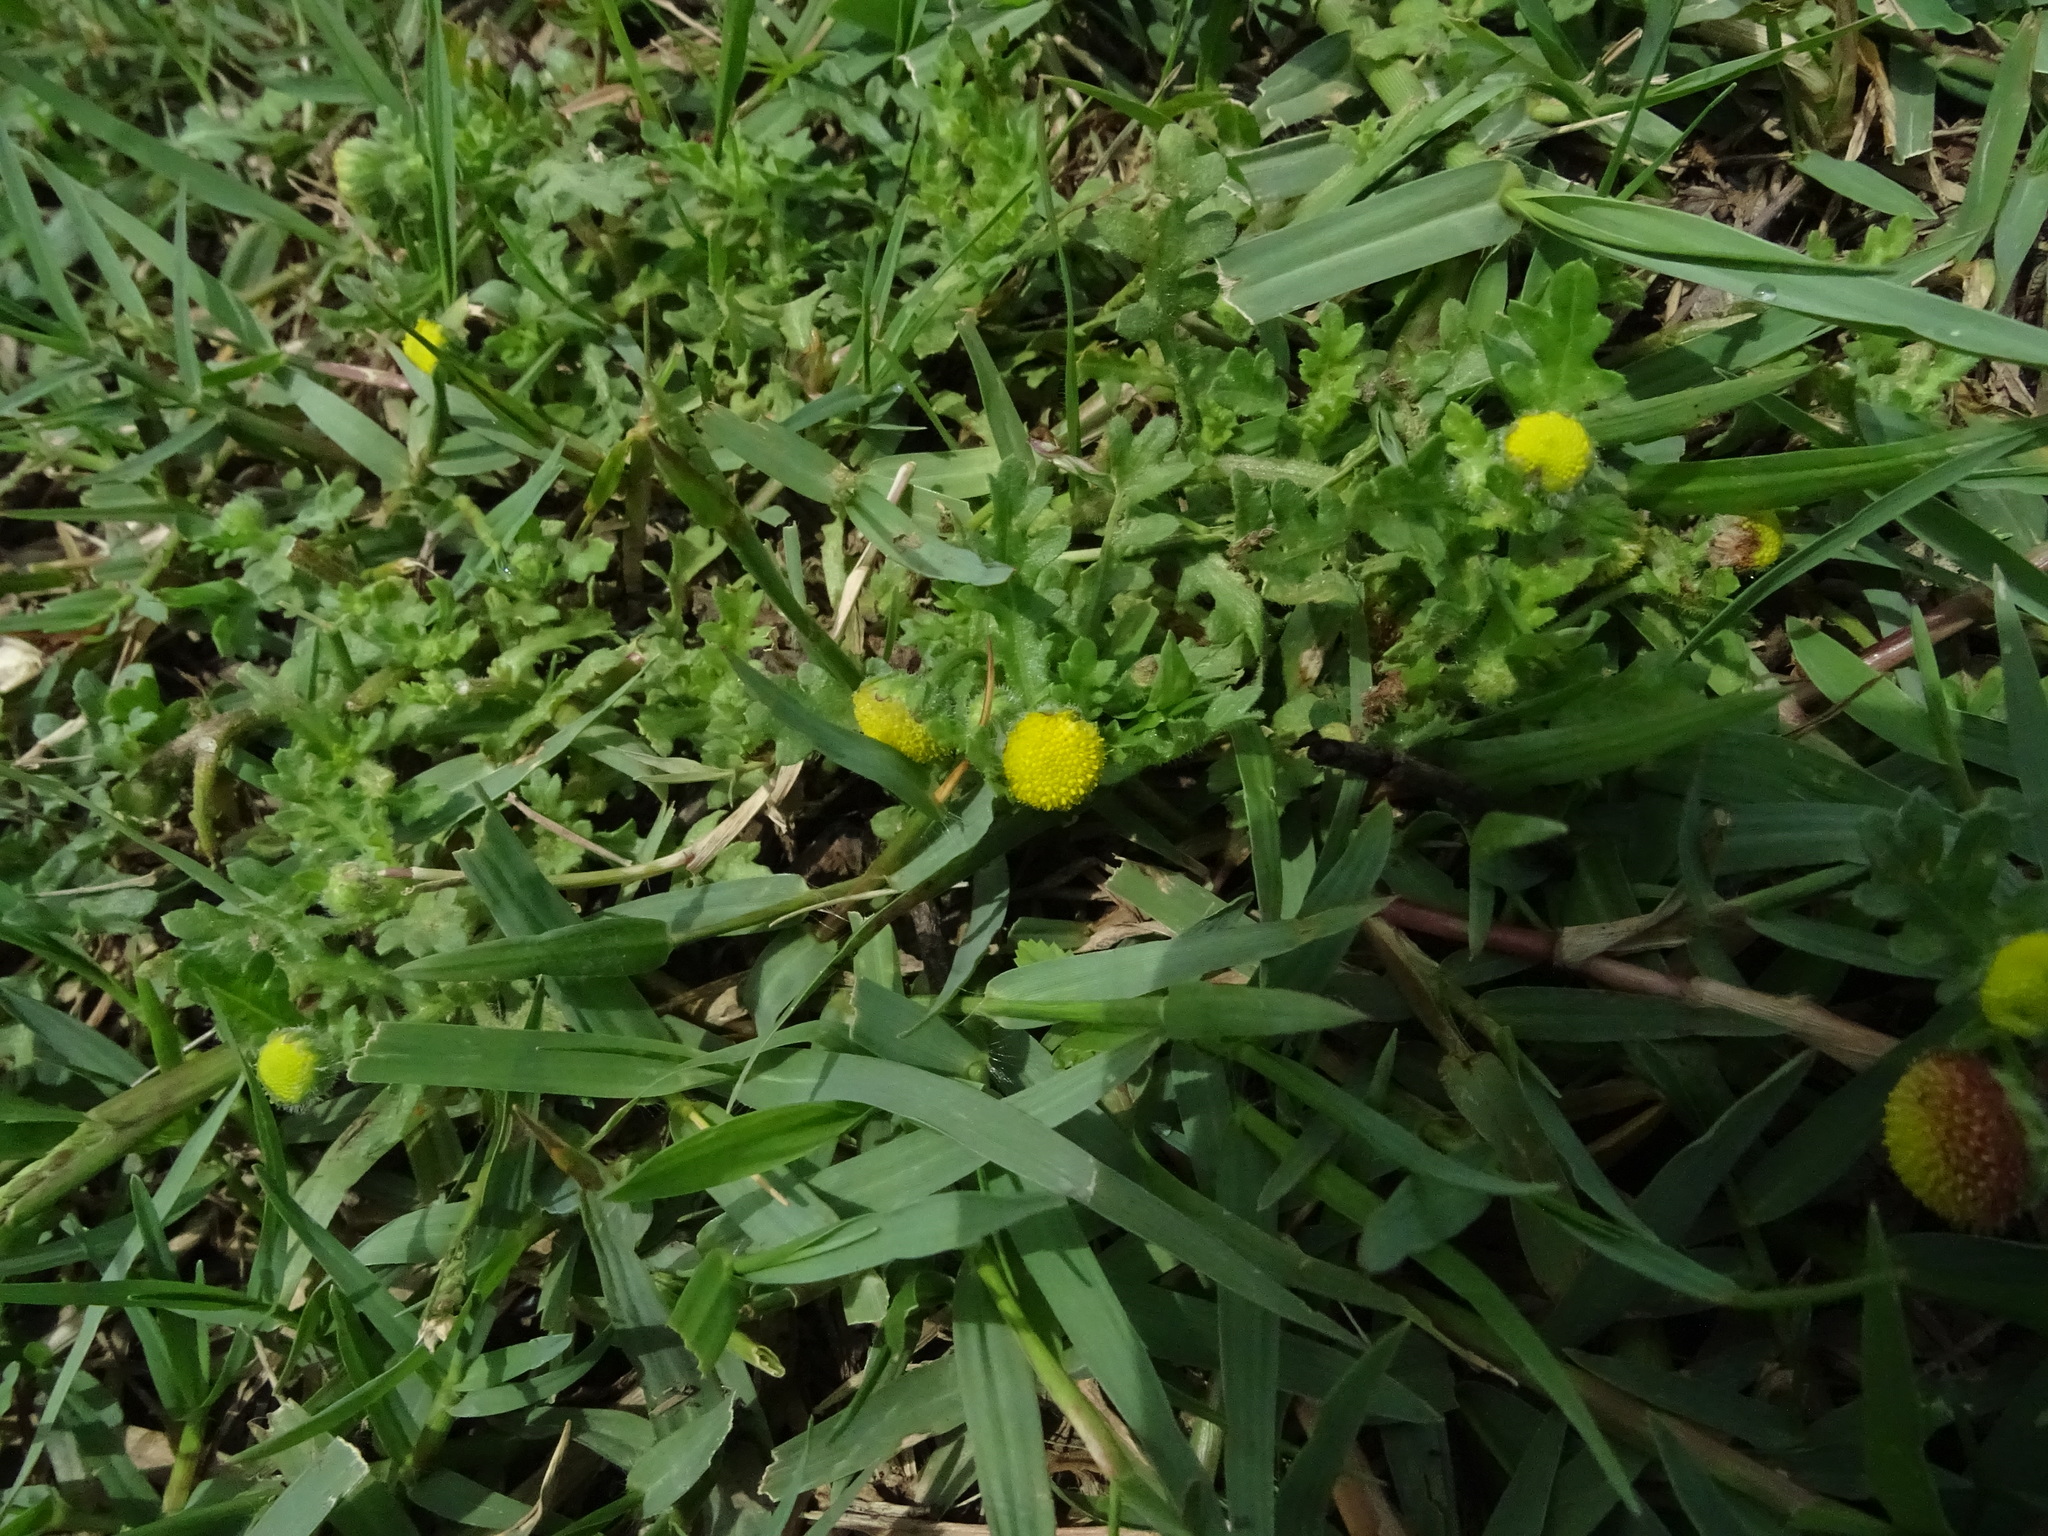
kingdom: Plantae
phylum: Tracheophyta
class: Magnoliopsida
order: Asterales
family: Asteraceae
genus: Grangea
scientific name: Grangea maderaspatana
